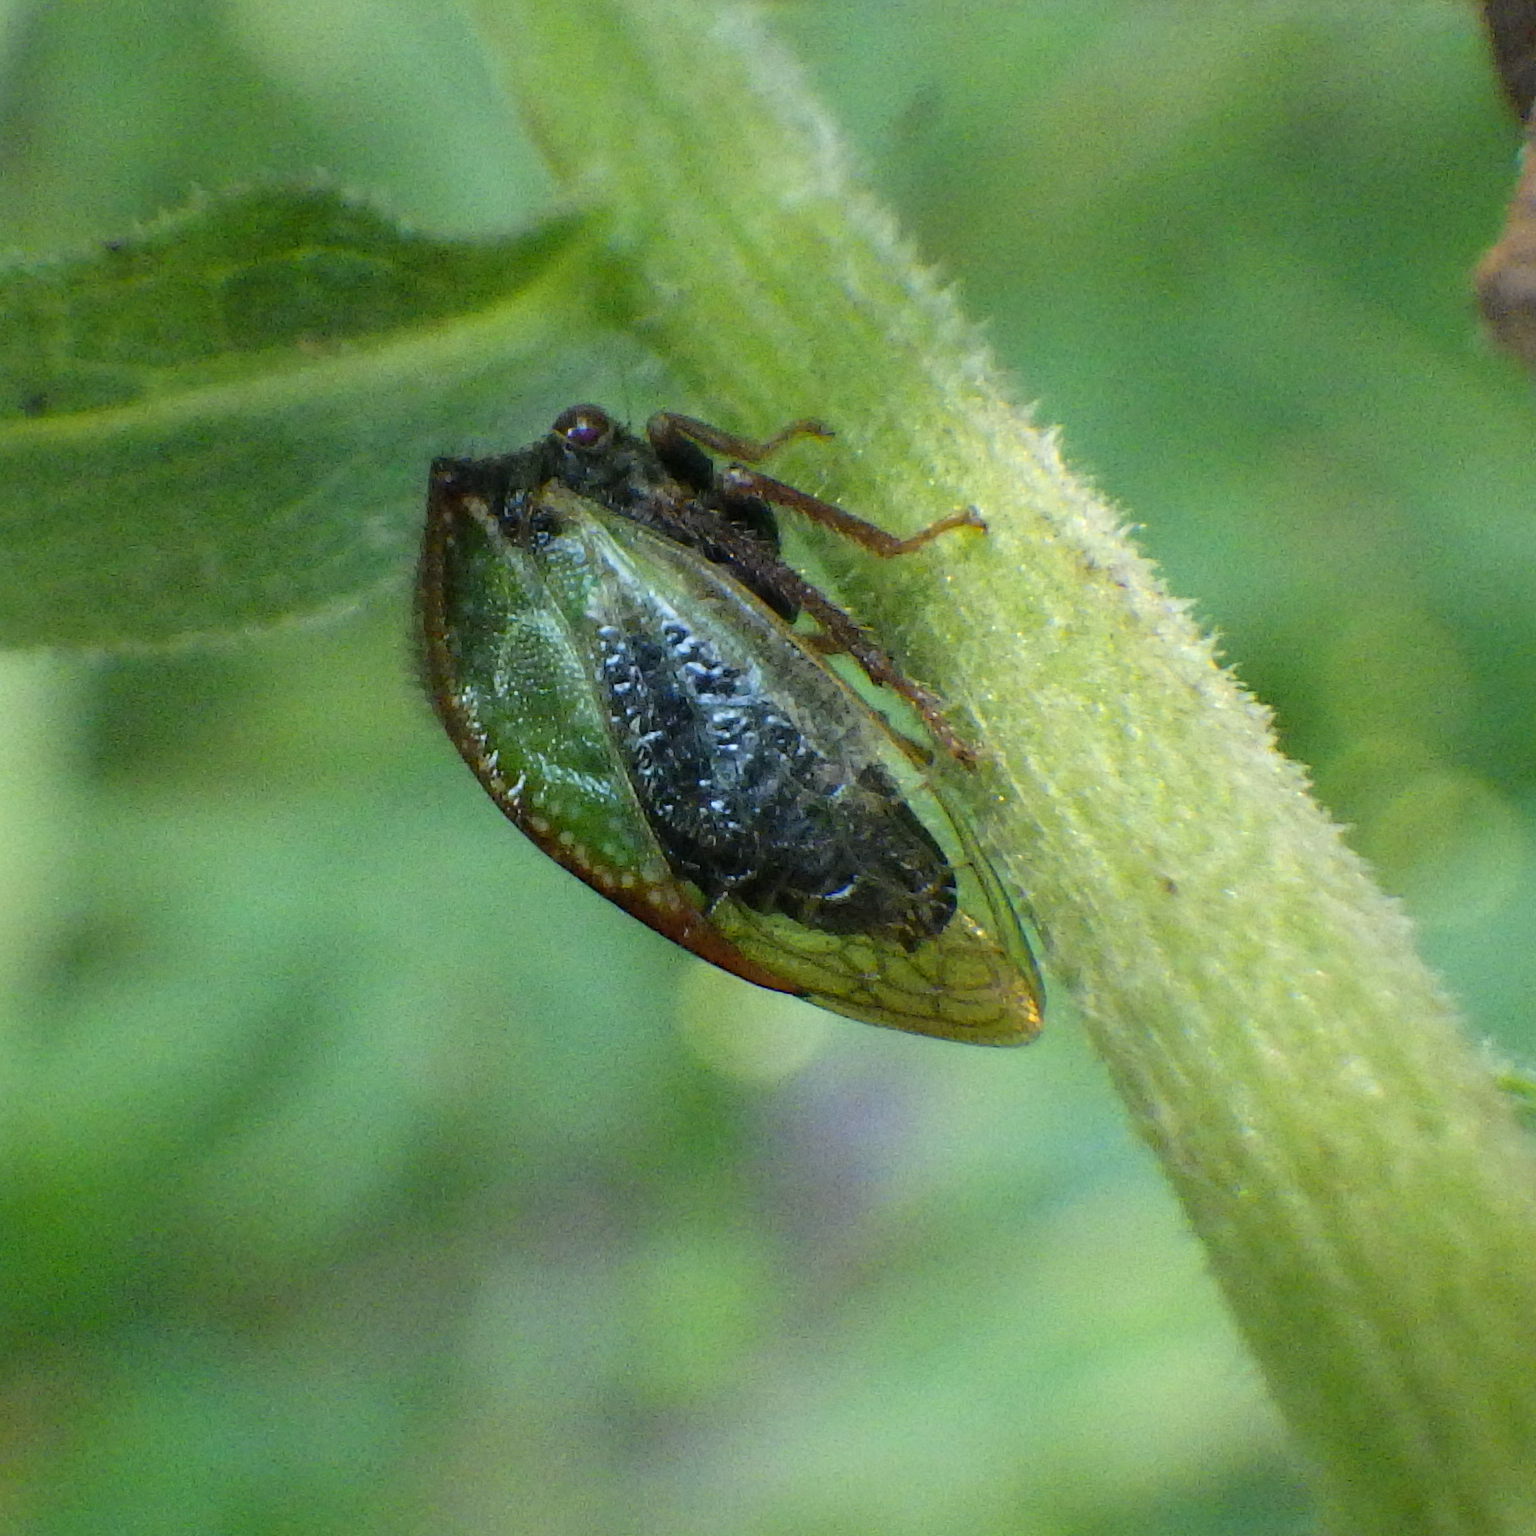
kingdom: Animalia
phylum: Arthropoda
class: Insecta
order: Hemiptera
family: Membracidae
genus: Stictocephala
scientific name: Stictocephala basalis
